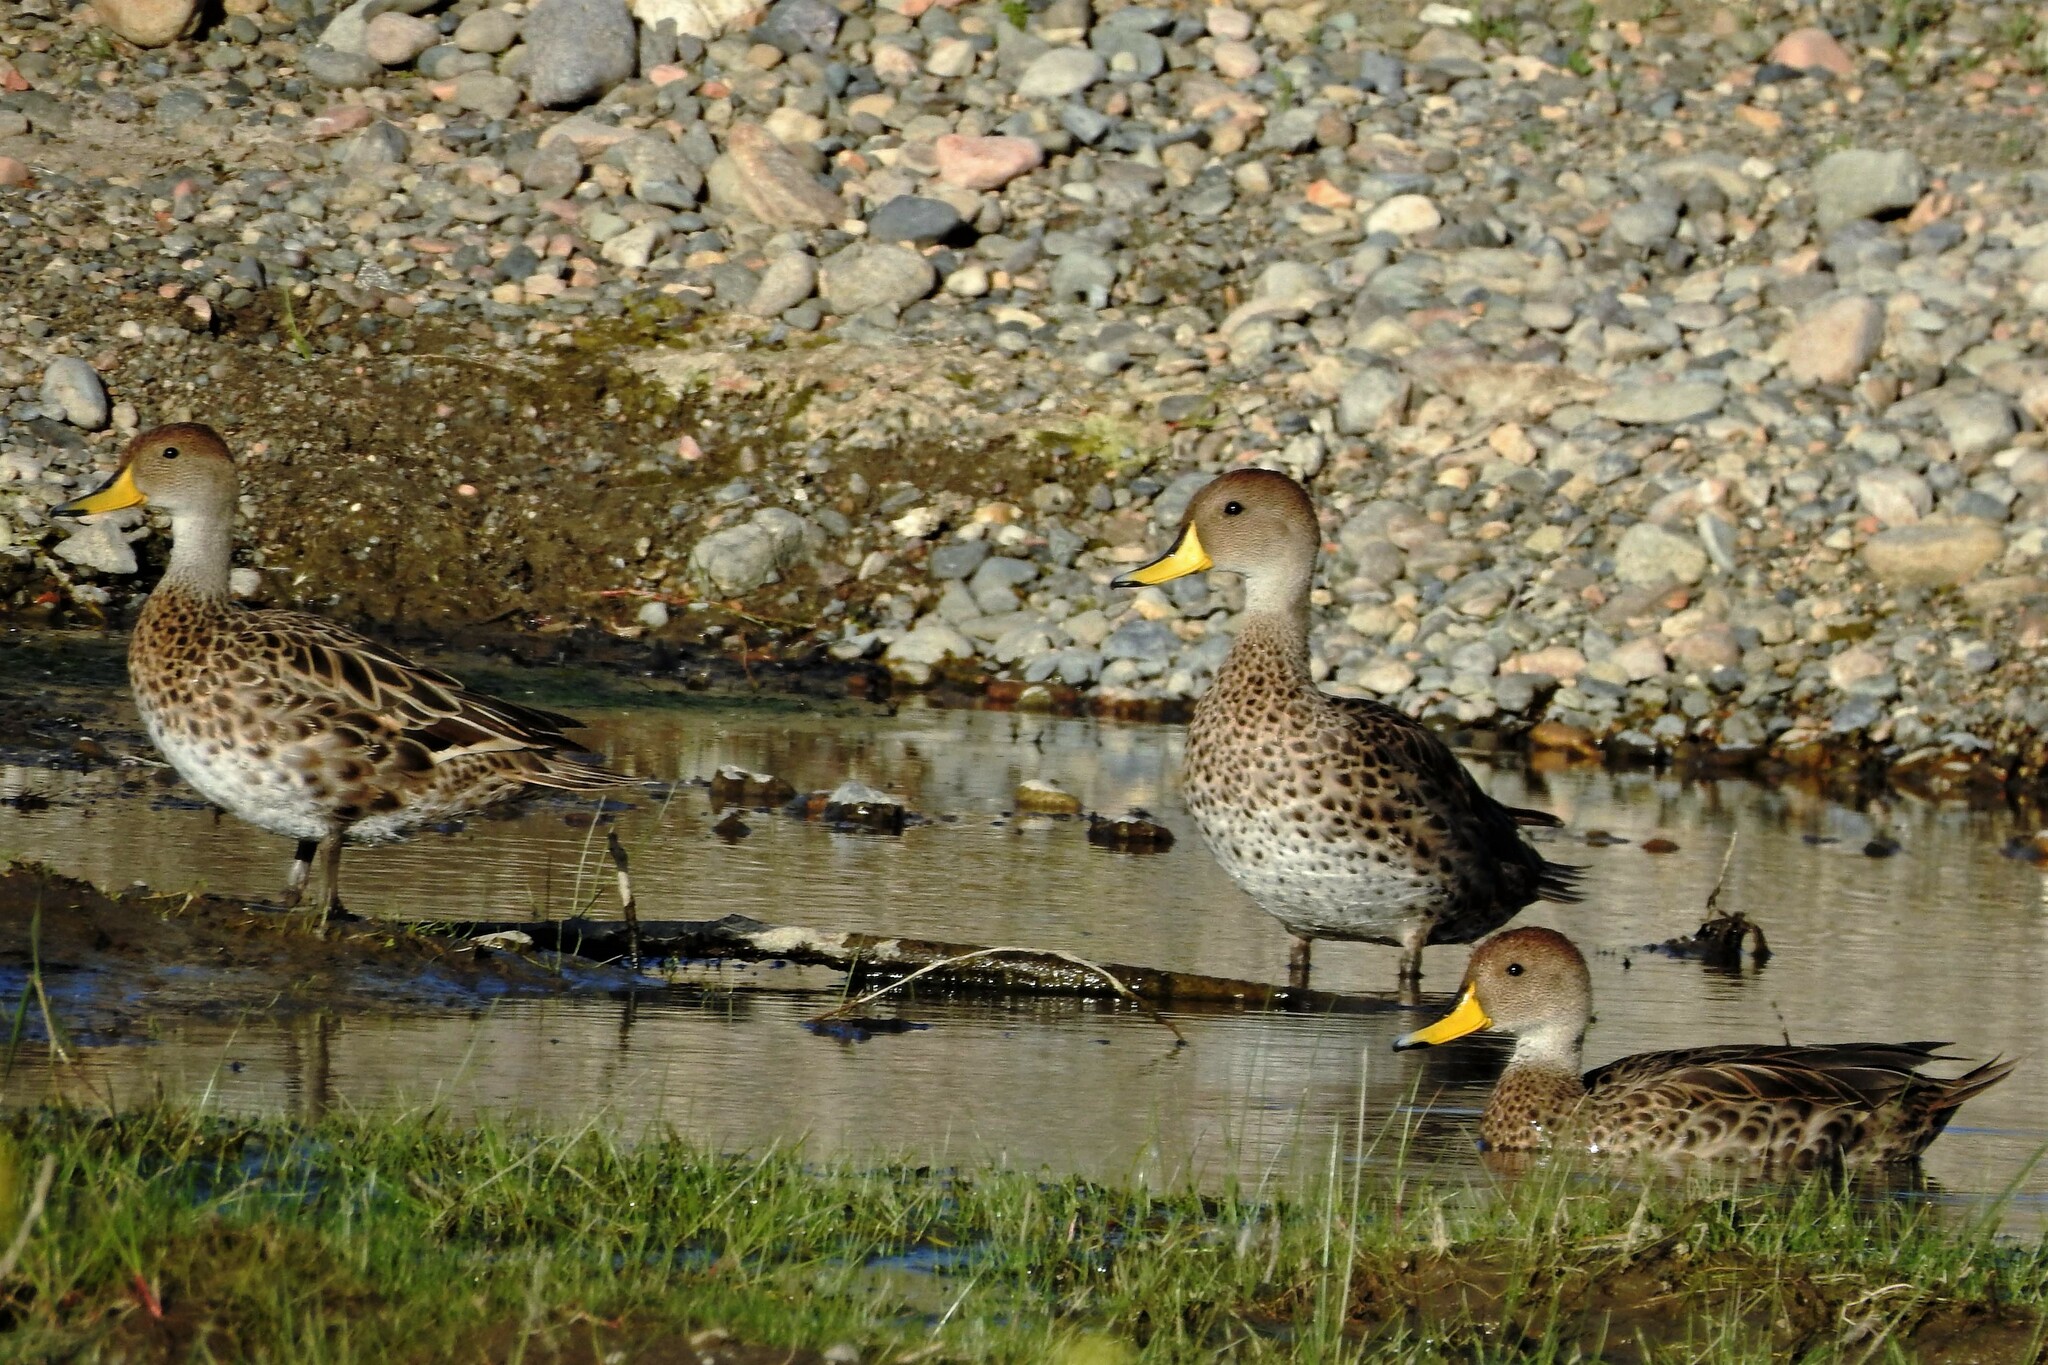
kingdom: Animalia
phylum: Chordata
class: Aves
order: Anseriformes
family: Anatidae
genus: Anas
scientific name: Anas georgica
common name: Yellow-billed pintail
